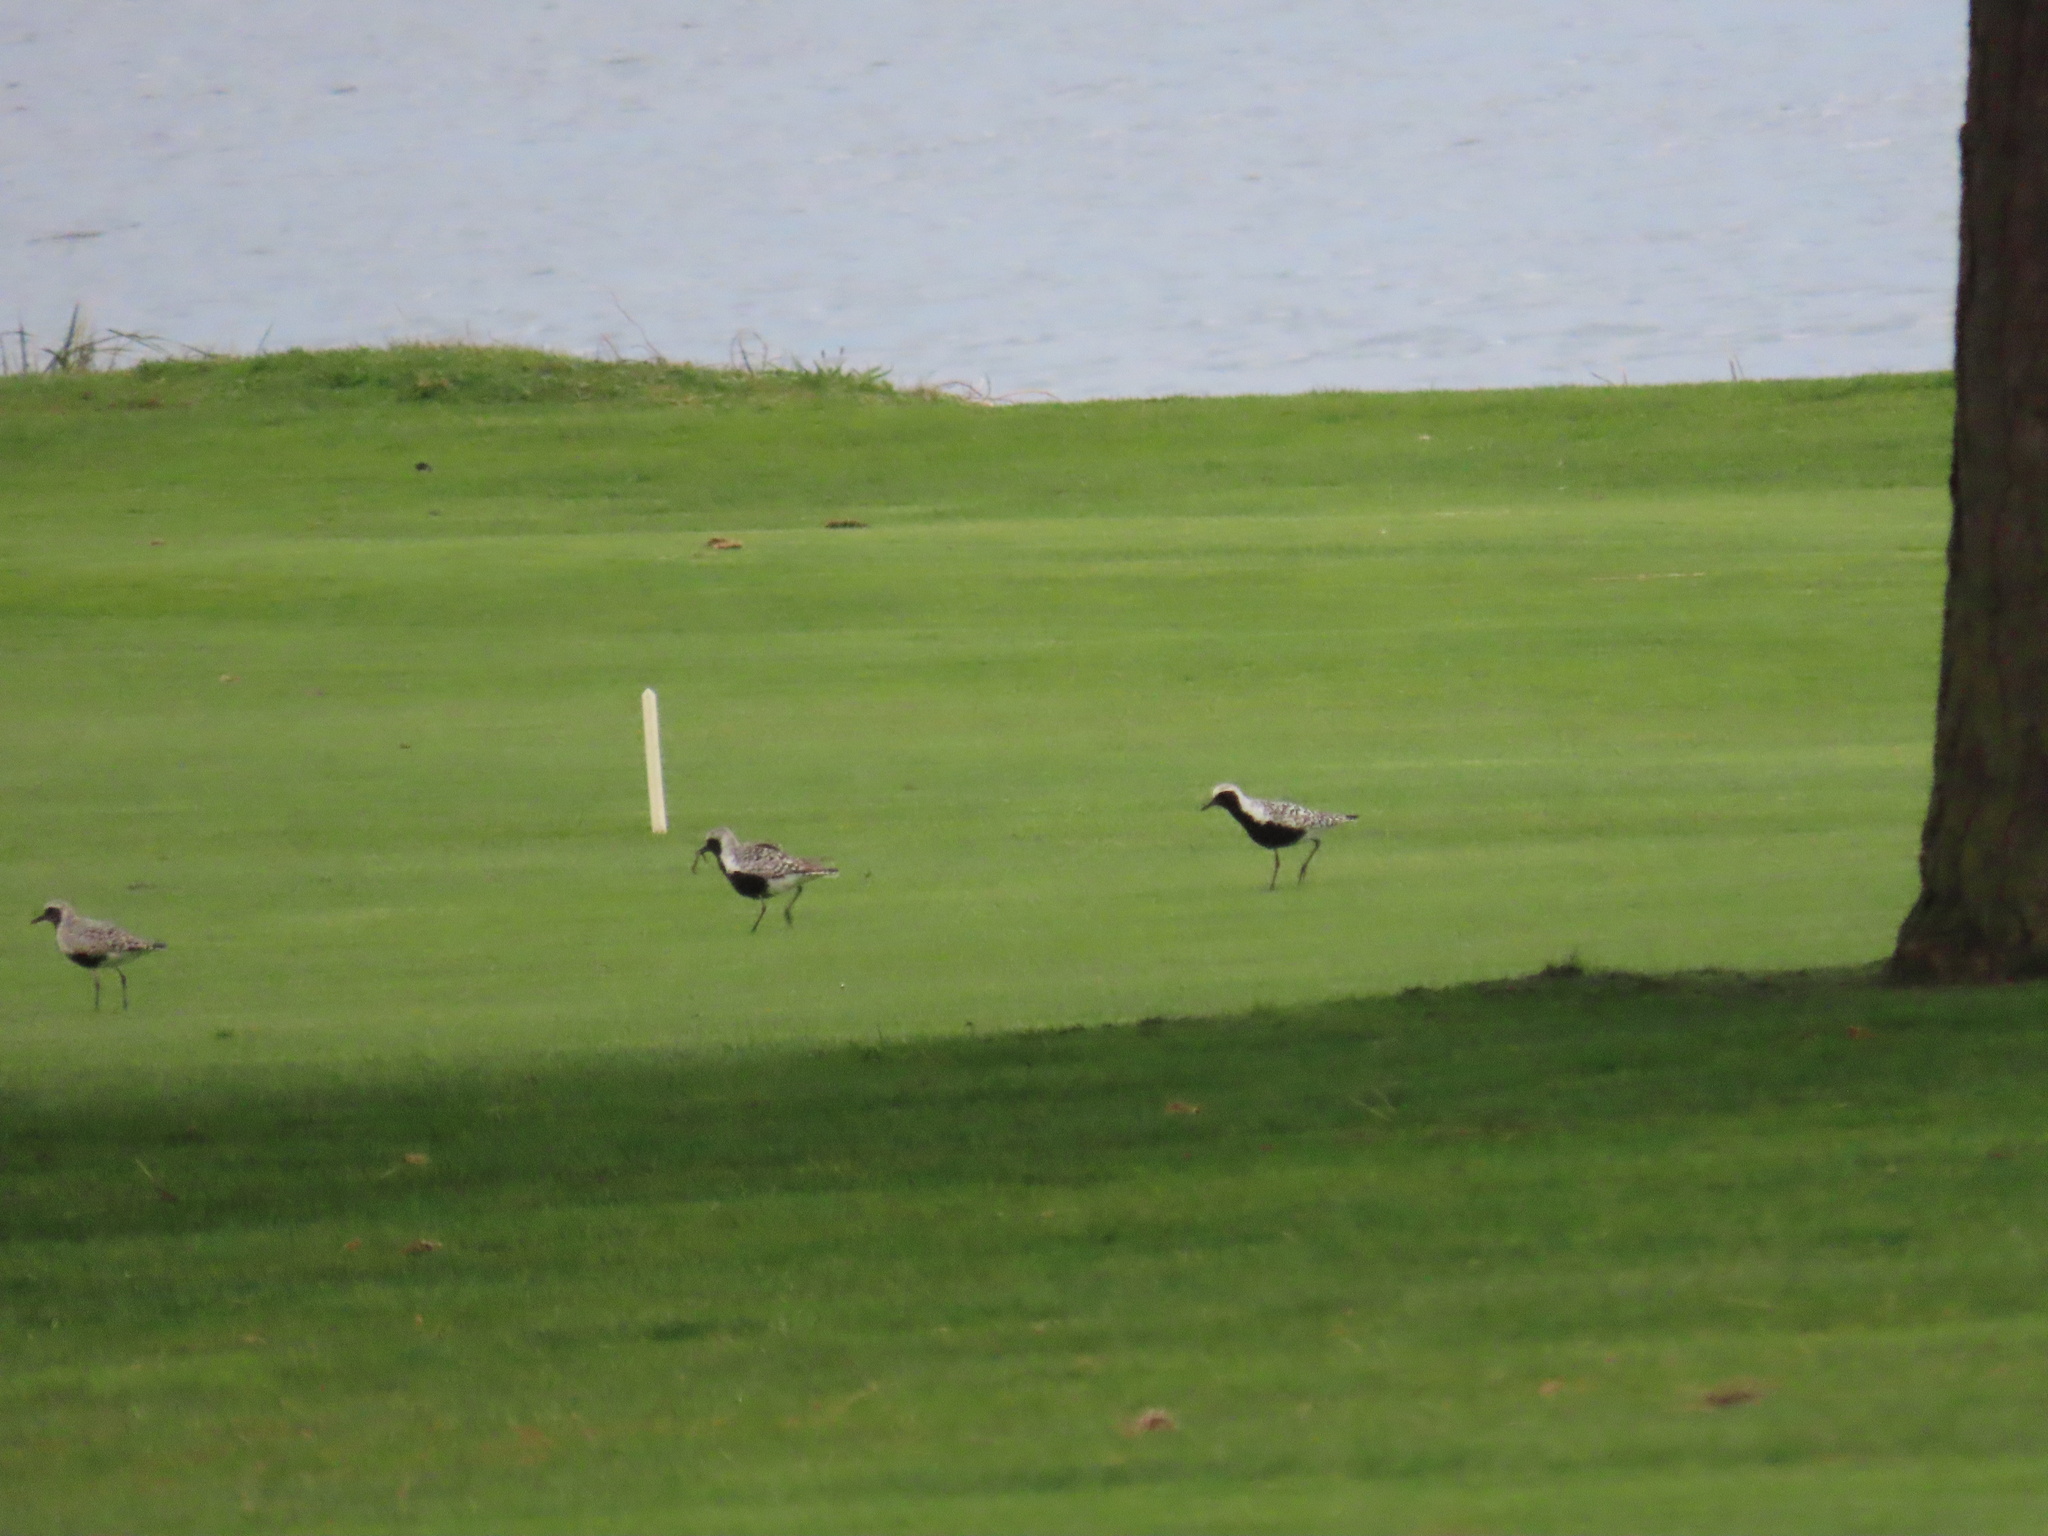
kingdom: Animalia
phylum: Chordata
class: Aves
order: Charadriiformes
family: Charadriidae
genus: Pluvialis
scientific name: Pluvialis squatarola
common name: Grey plover
